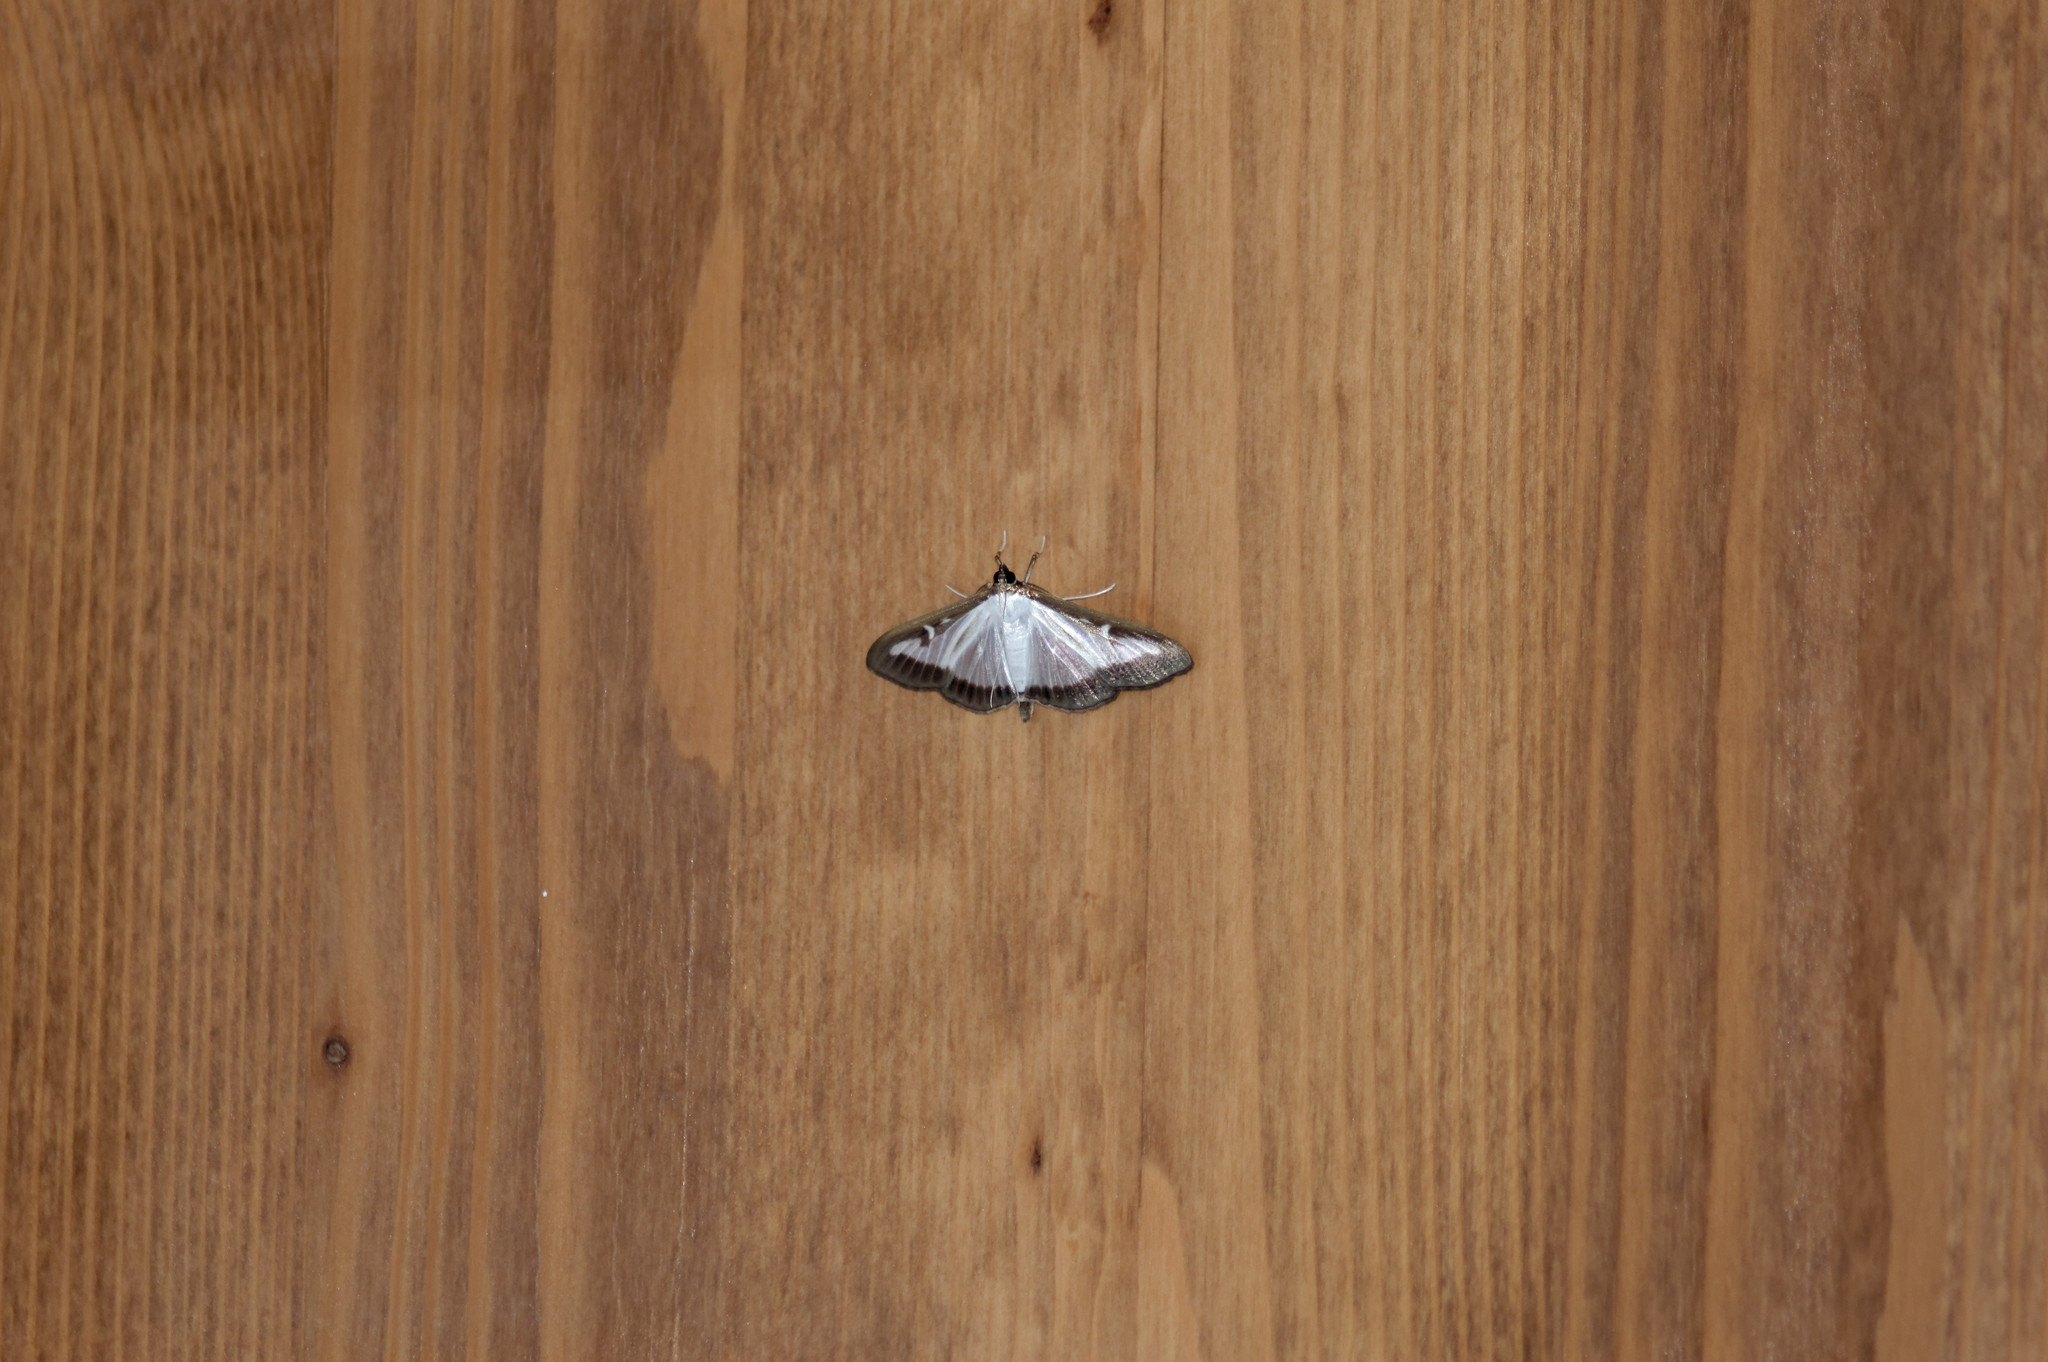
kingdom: Animalia
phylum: Arthropoda
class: Insecta
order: Lepidoptera
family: Crambidae
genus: Cydalima
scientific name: Cydalima perspectalis
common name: Box tree moth
